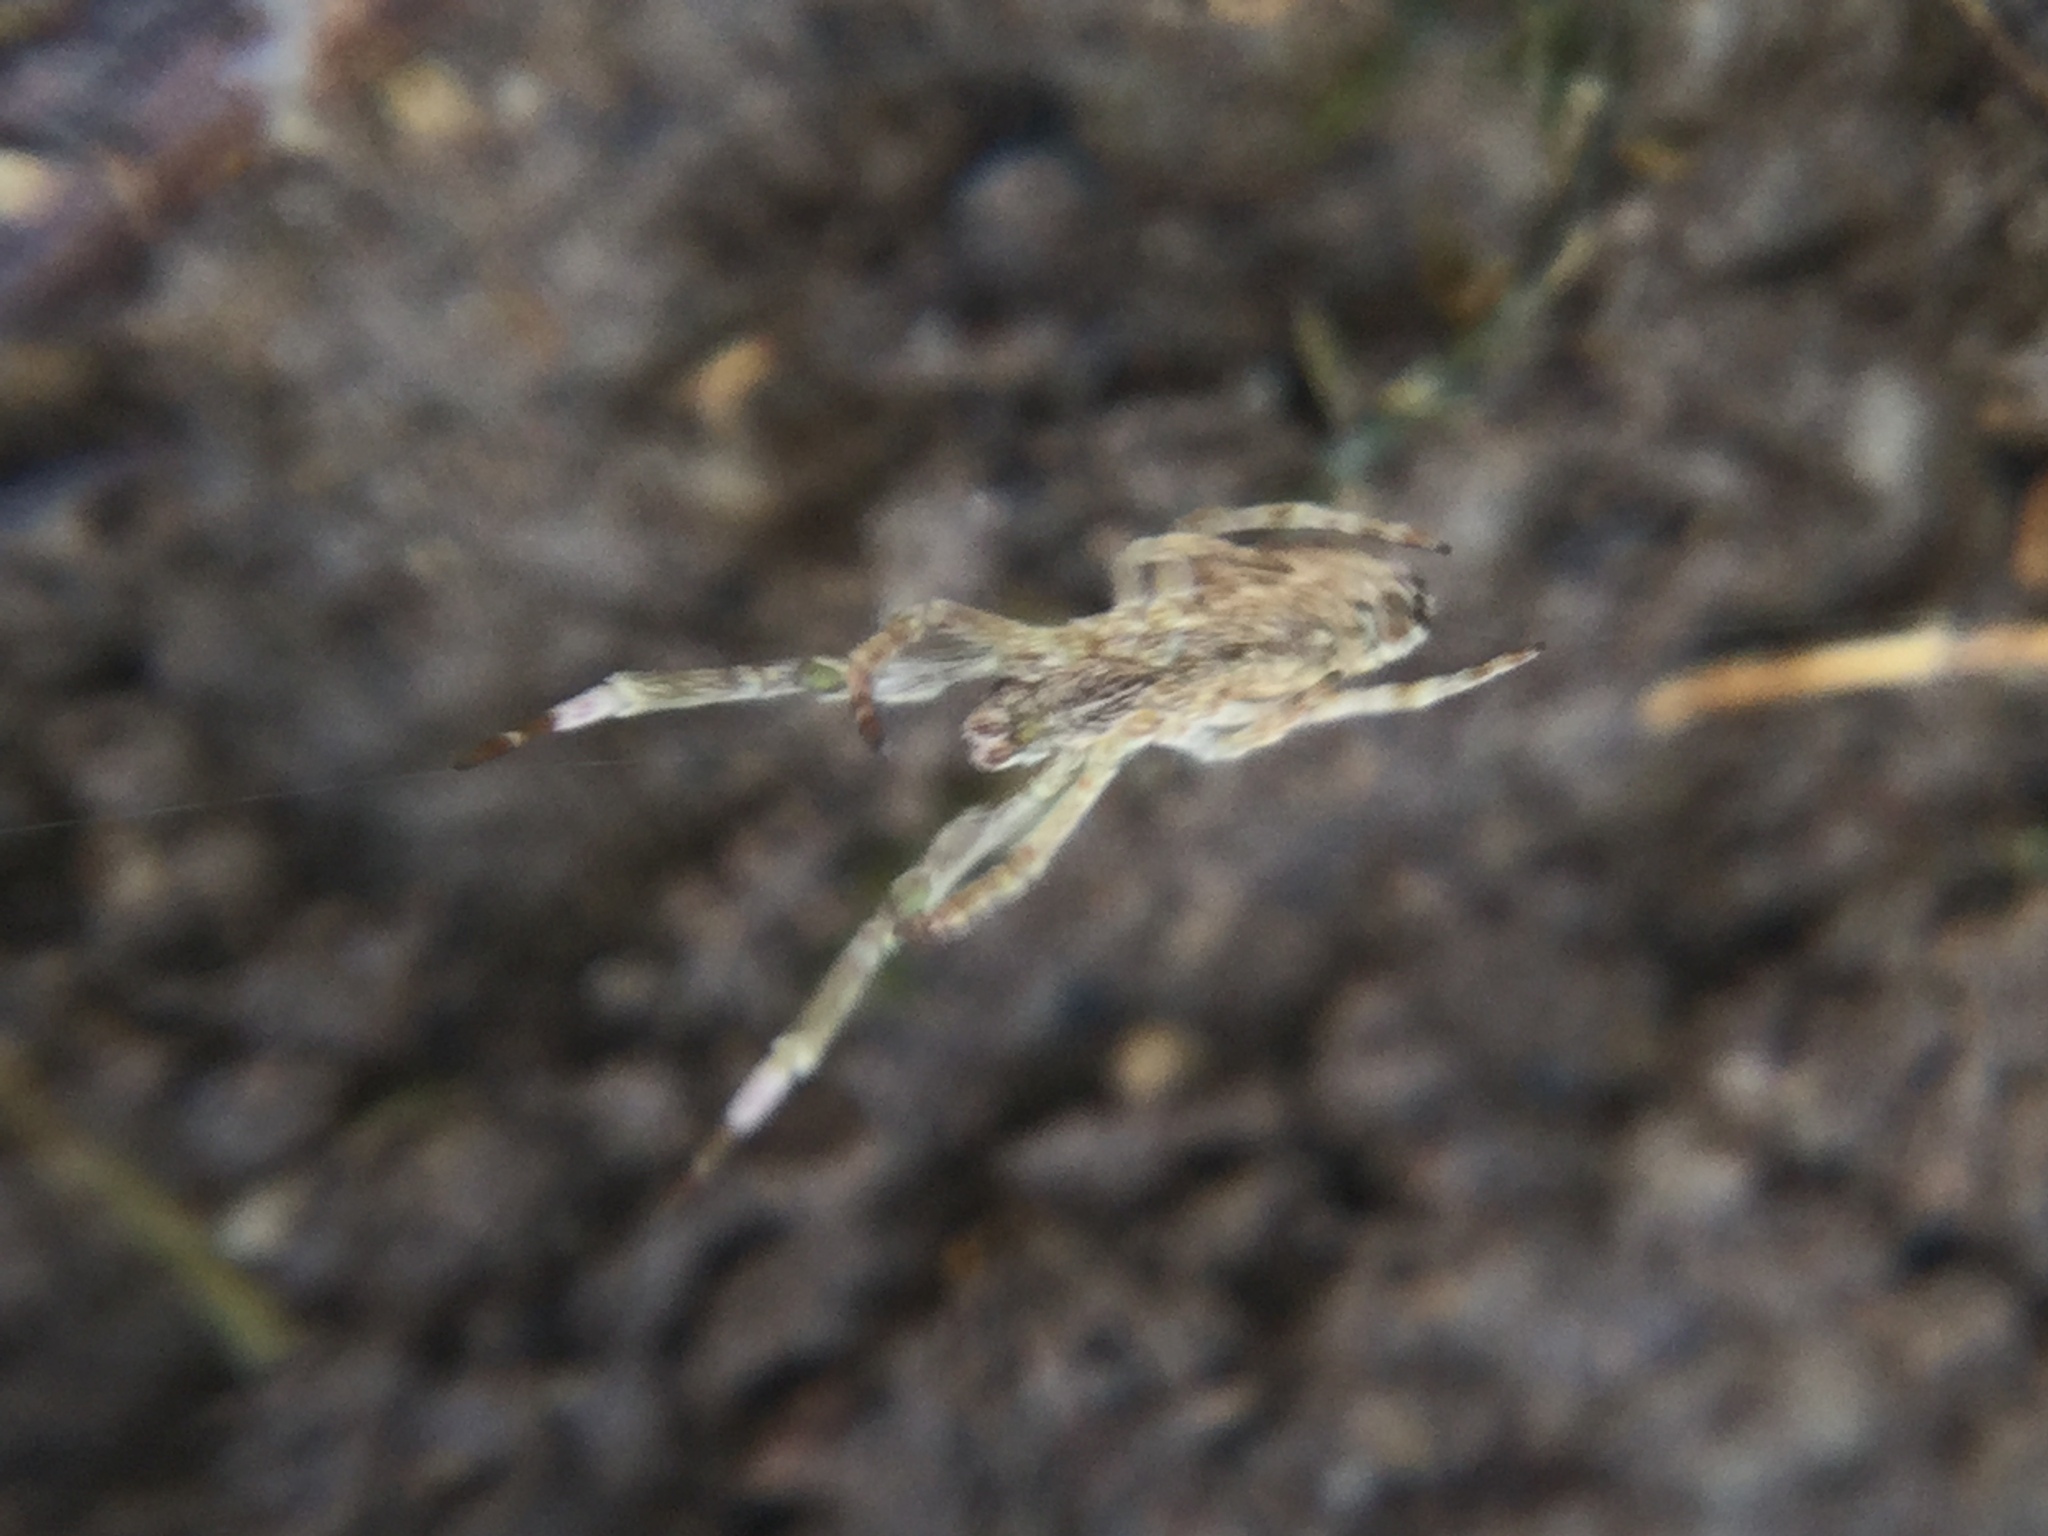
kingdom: Animalia
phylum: Arthropoda
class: Arachnida
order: Araneae
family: Uloboridae
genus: Uloborus
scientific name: Uloborus glomosus
